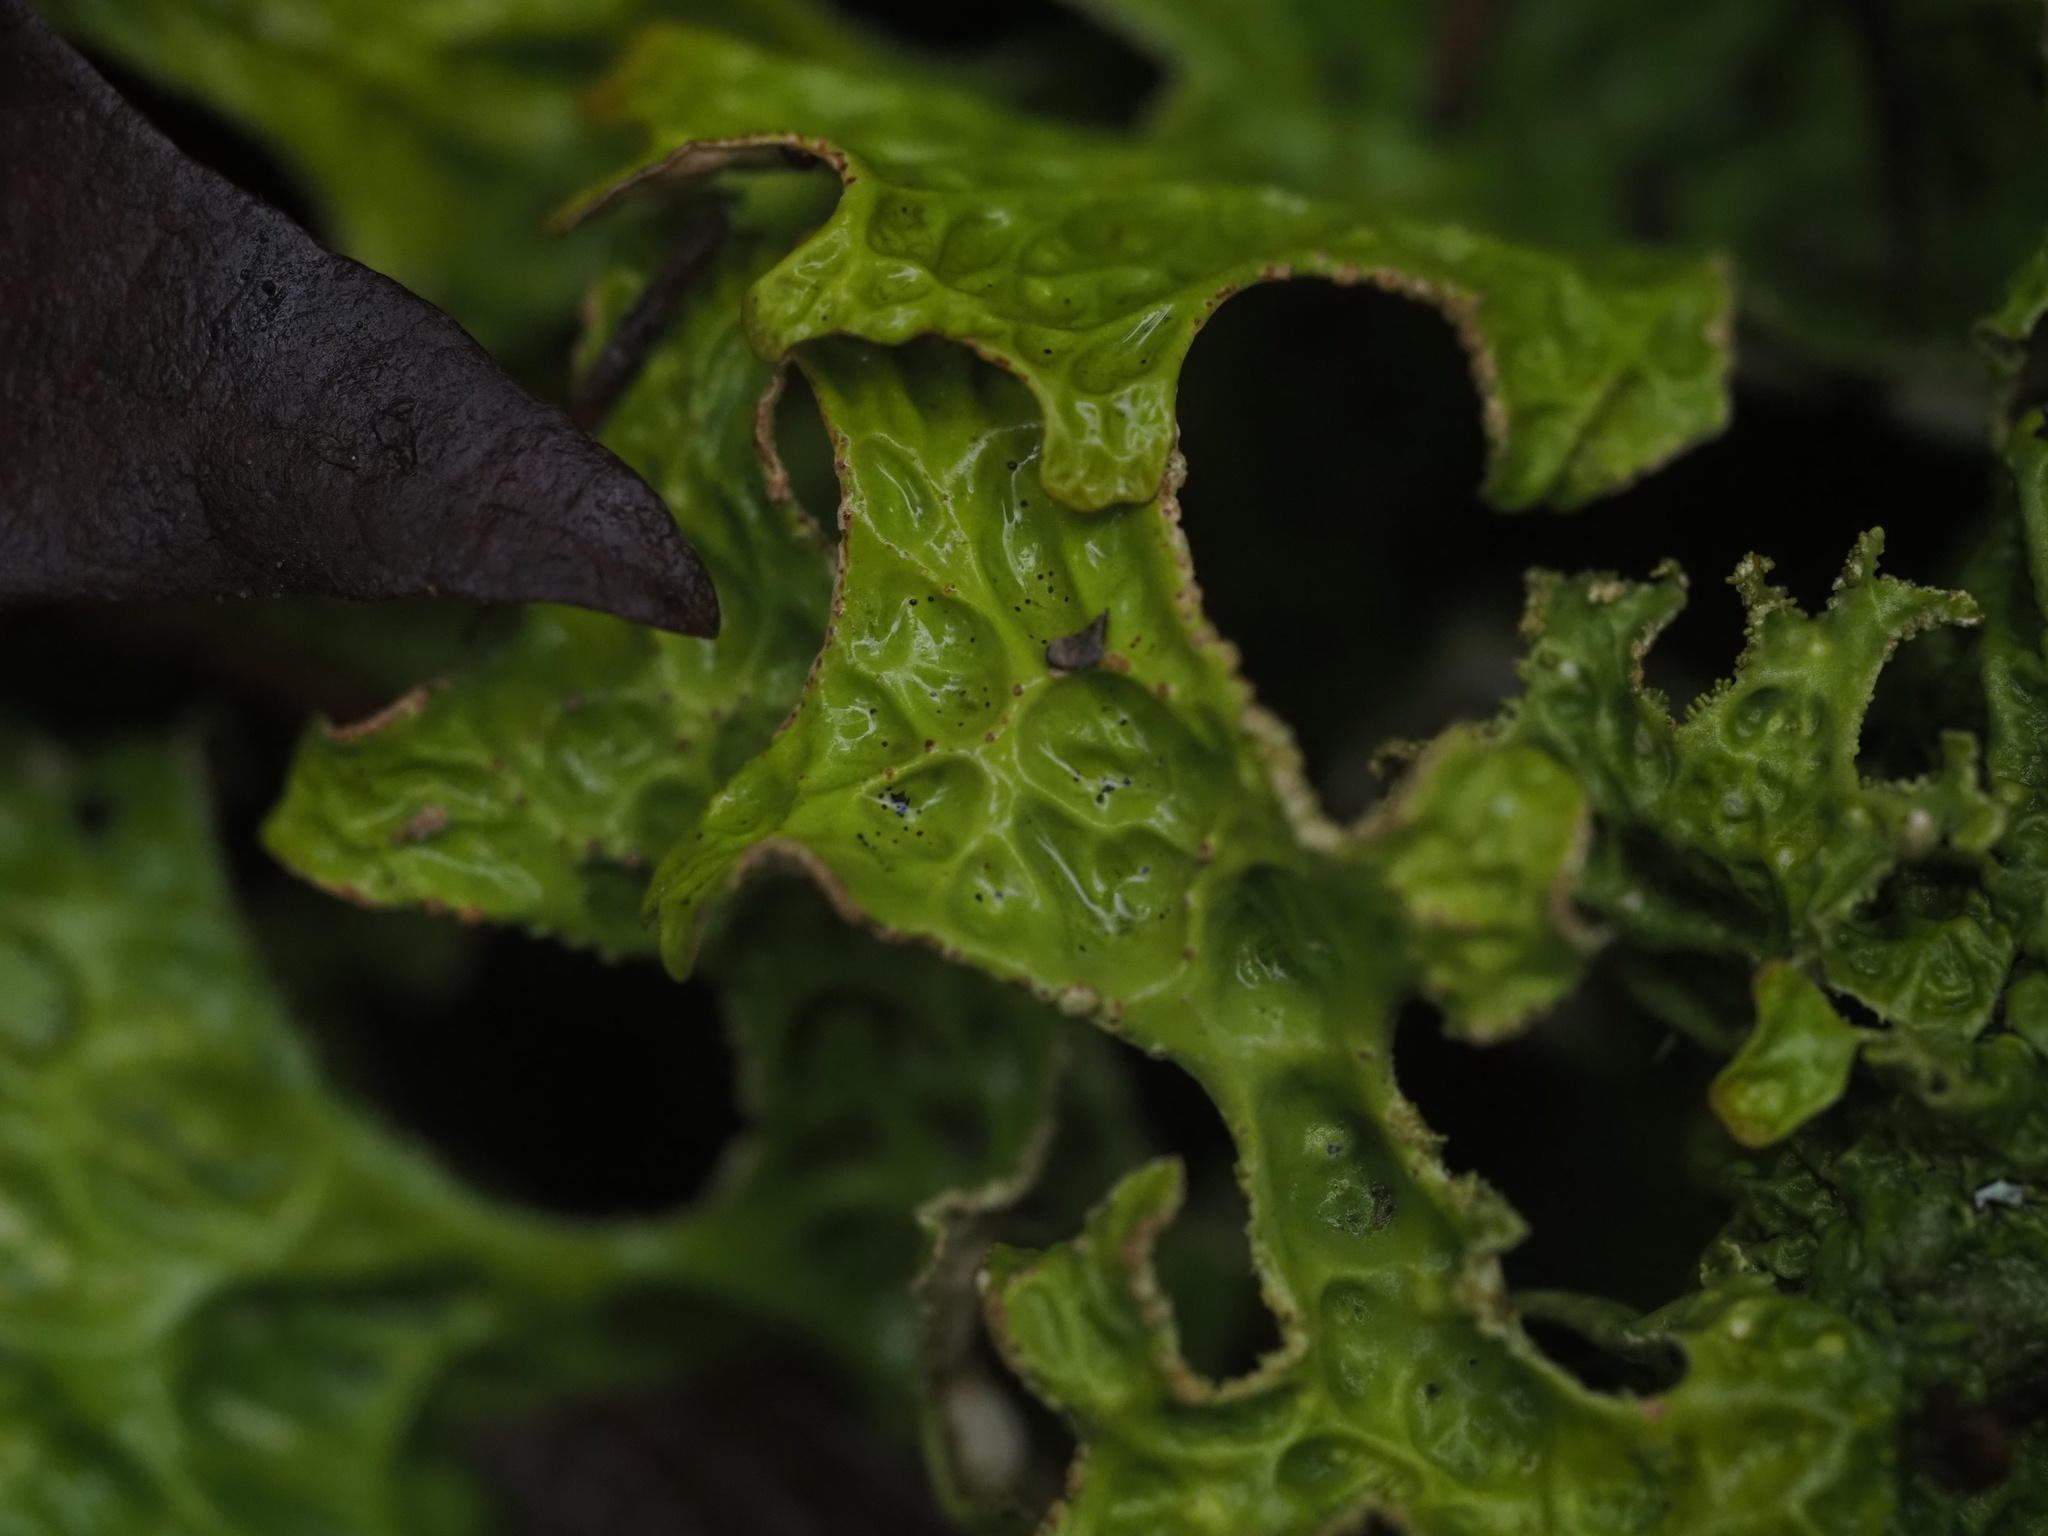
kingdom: Fungi
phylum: Ascomycota
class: Lecanoromycetes
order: Peltigerales
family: Lobariaceae
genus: Lobaria
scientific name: Lobaria pulmonaria
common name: Lungwort
